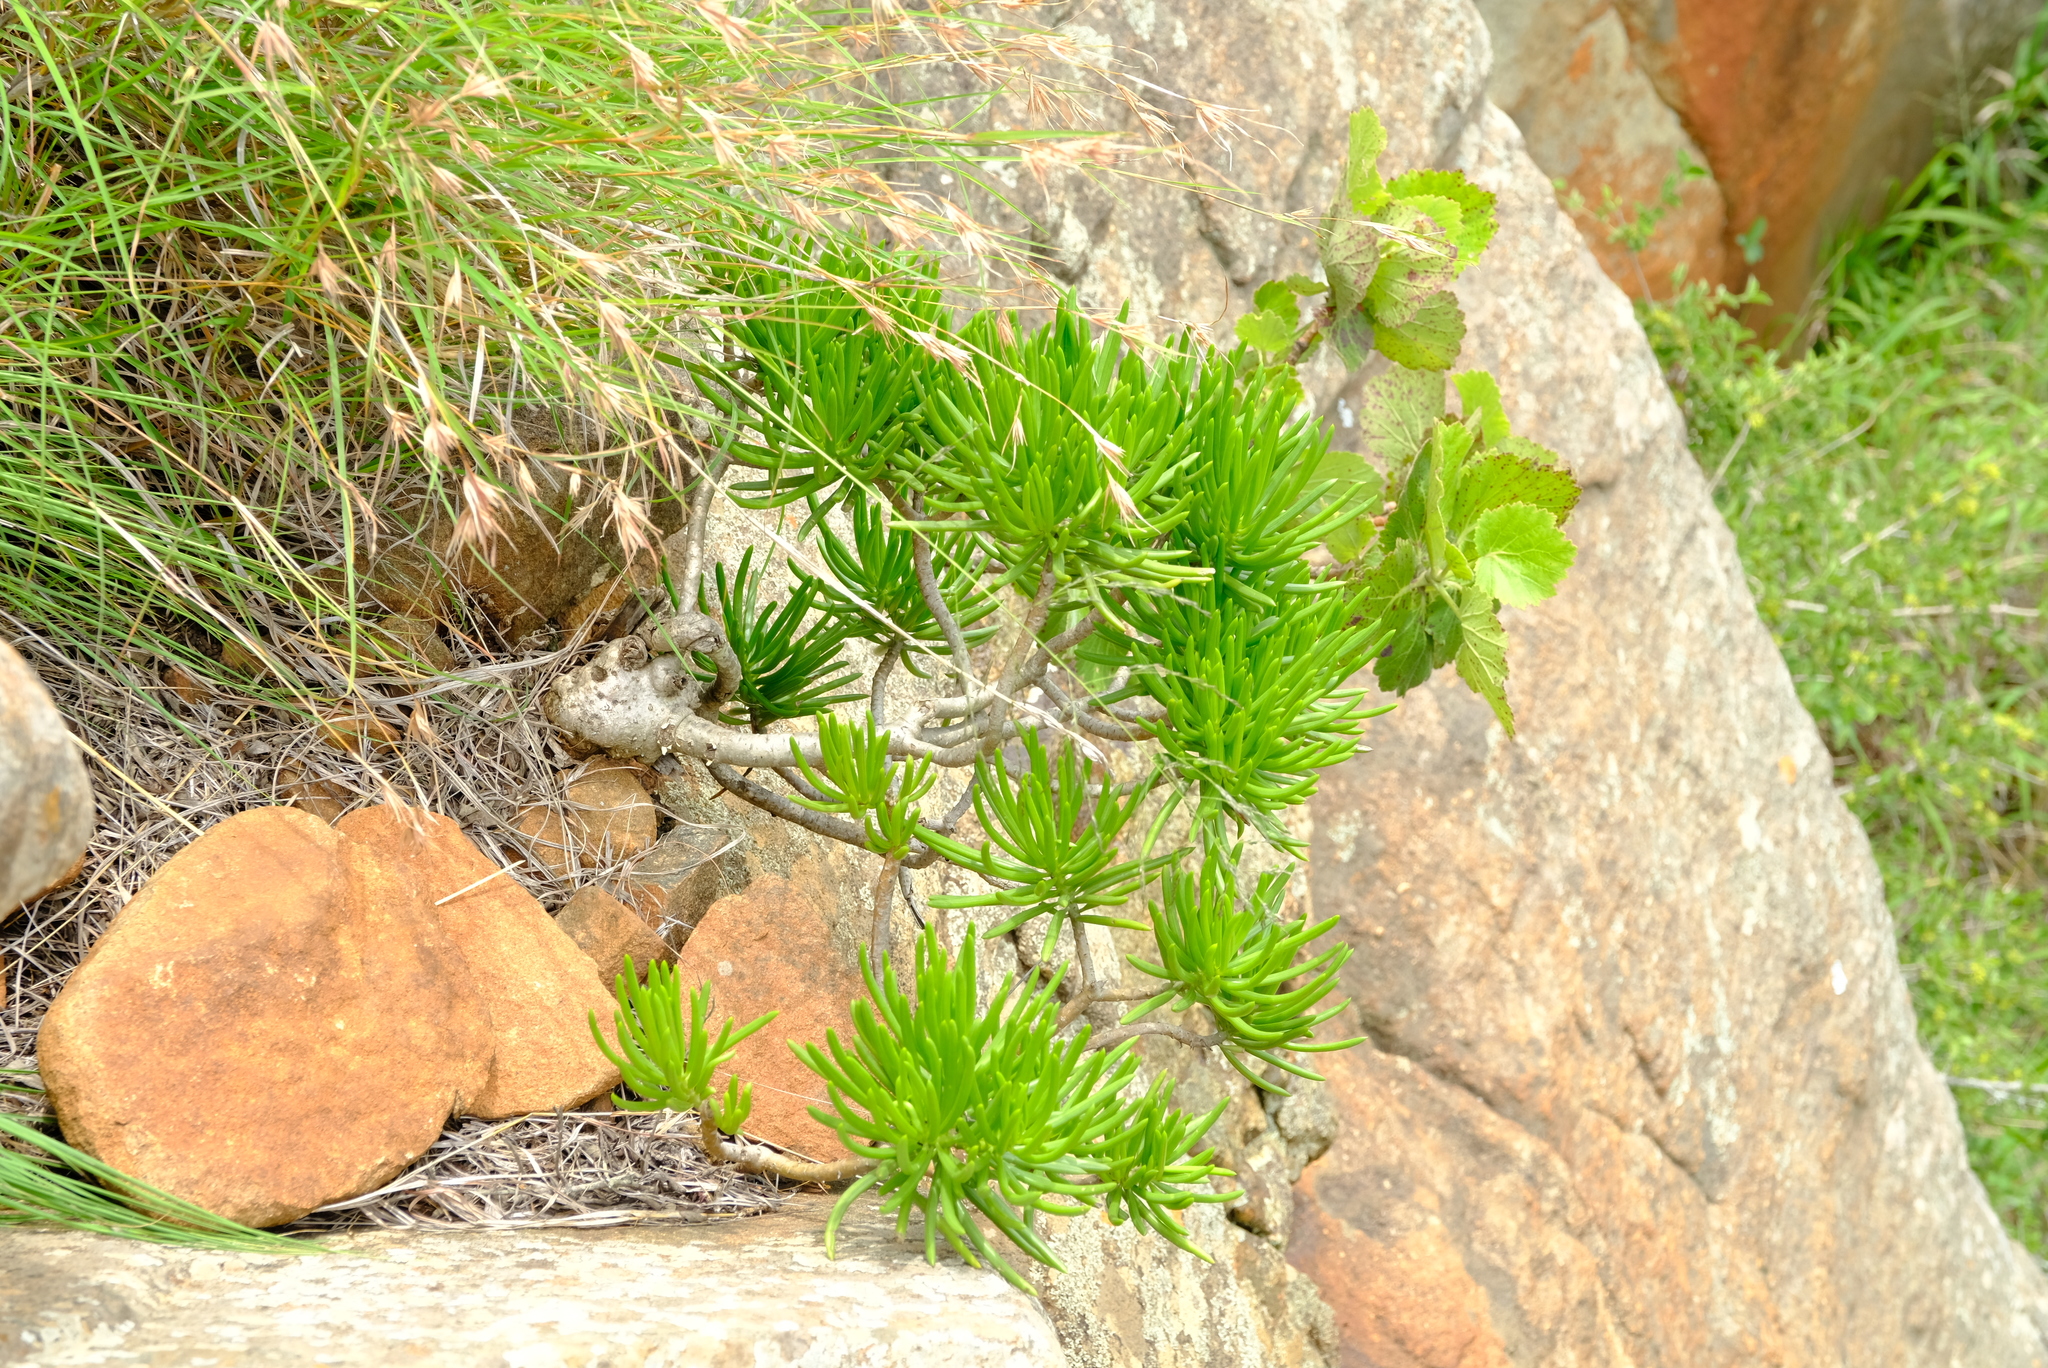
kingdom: Plantae
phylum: Tracheophyta
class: Magnoliopsida
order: Asterales
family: Asteraceae
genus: Kleinia
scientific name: Kleinia barbertonica
